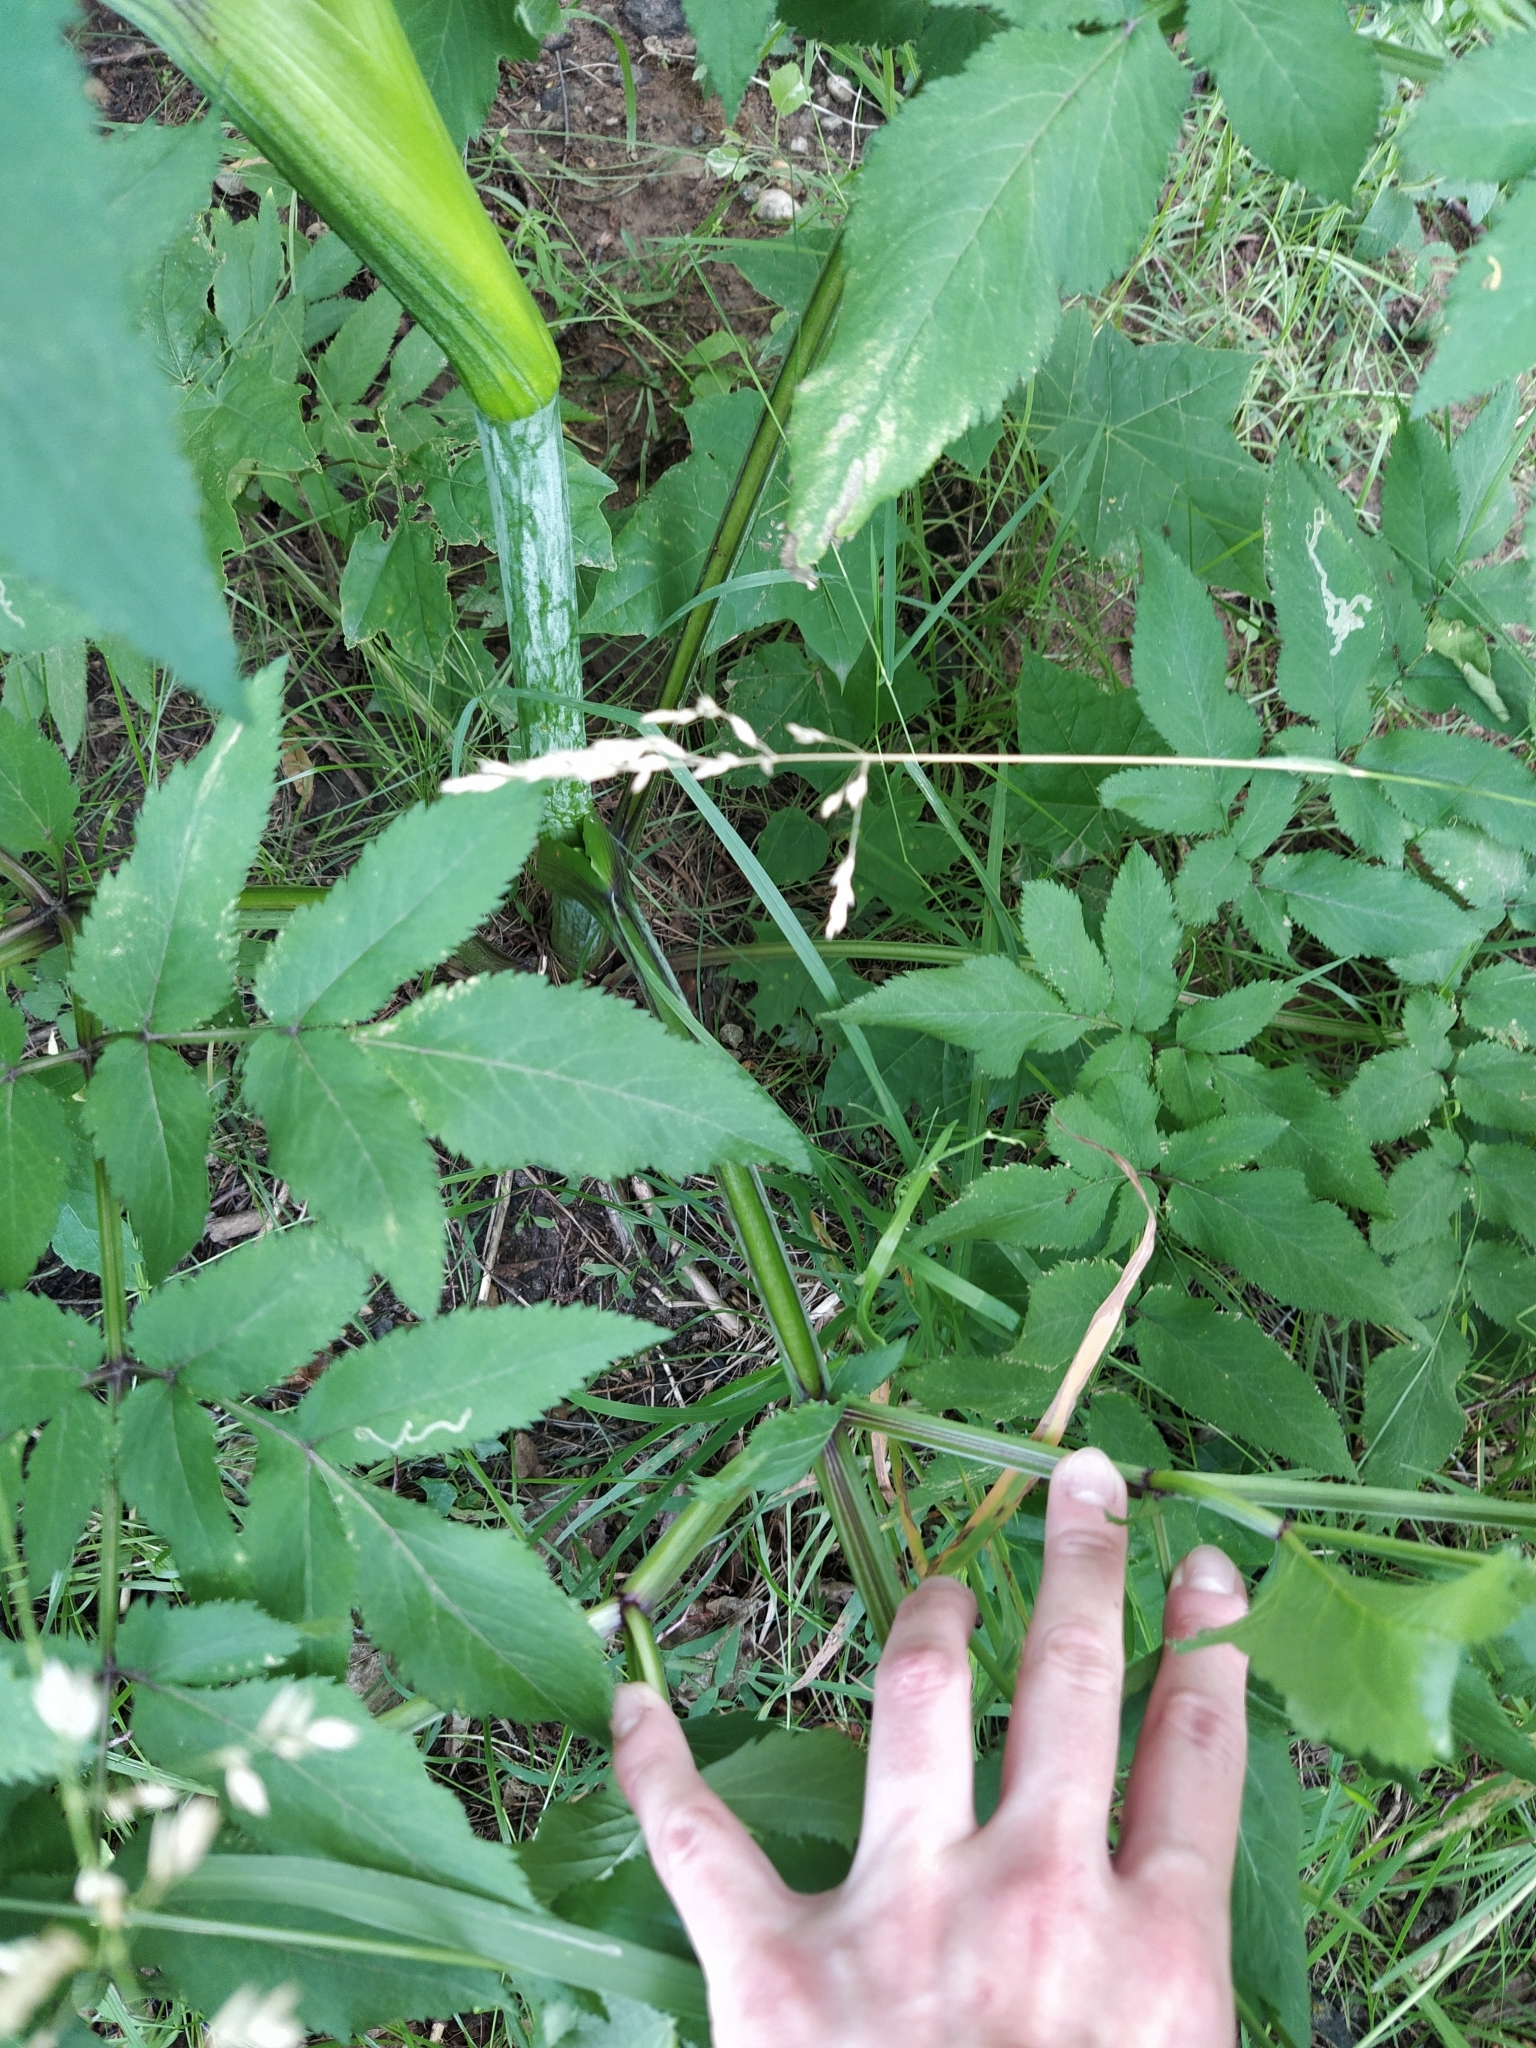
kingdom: Plantae
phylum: Tracheophyta
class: Magnoliopsida
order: Apiales
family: Apiaceae
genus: Angelica
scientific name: Angelica sylvestris
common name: Wild angelica
